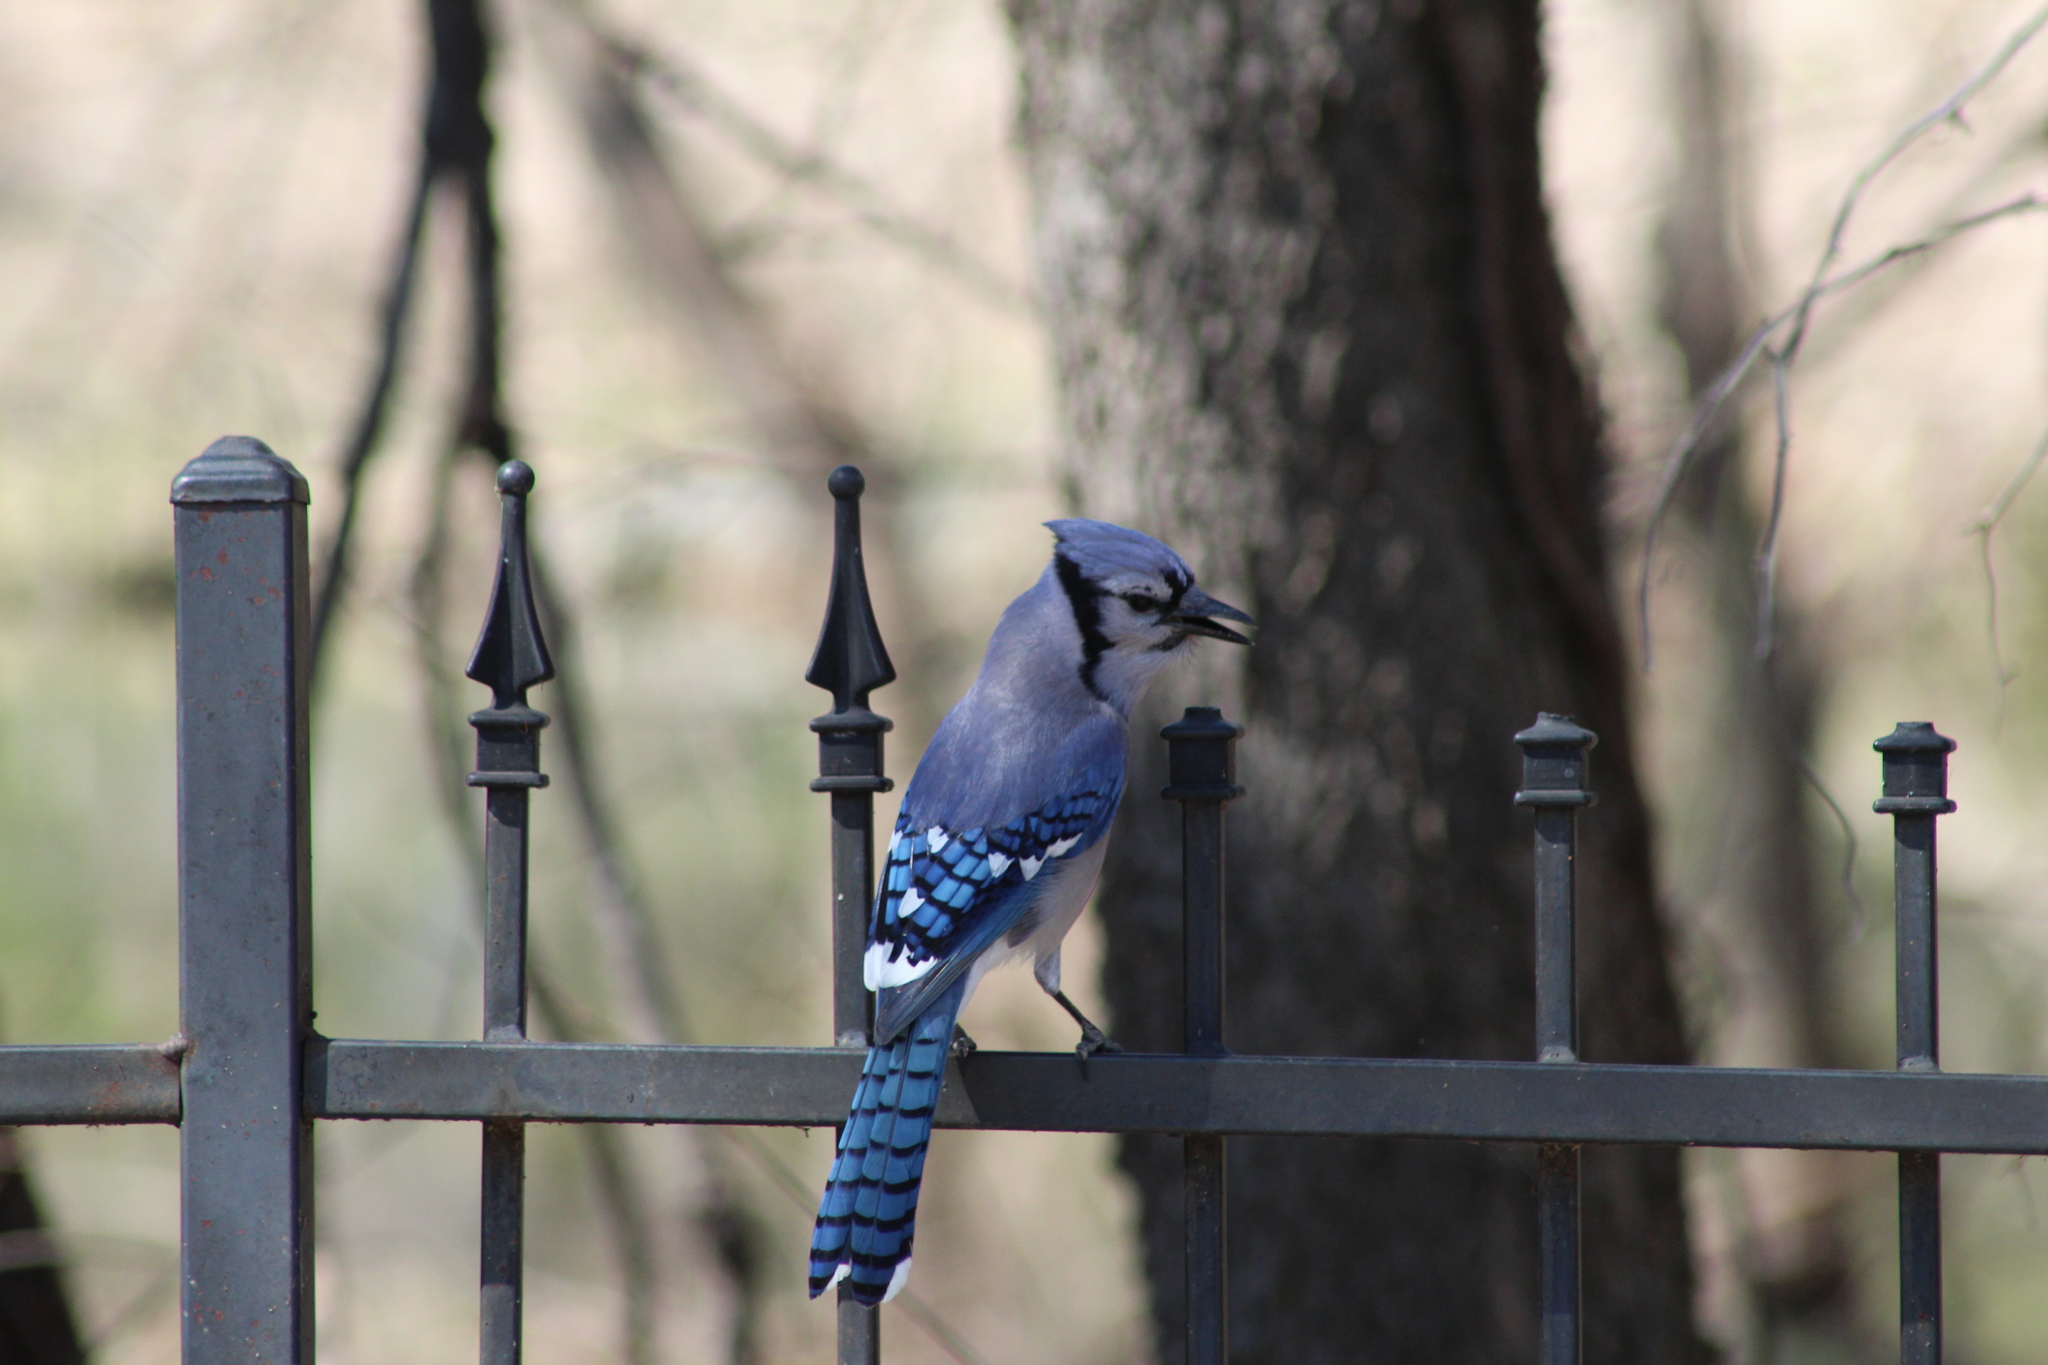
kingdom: Animalia
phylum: Chordata
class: Aves
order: Passeriformes
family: Corvidae
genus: Cyanocitta
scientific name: Cyanocitta cristata
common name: Blue jay
